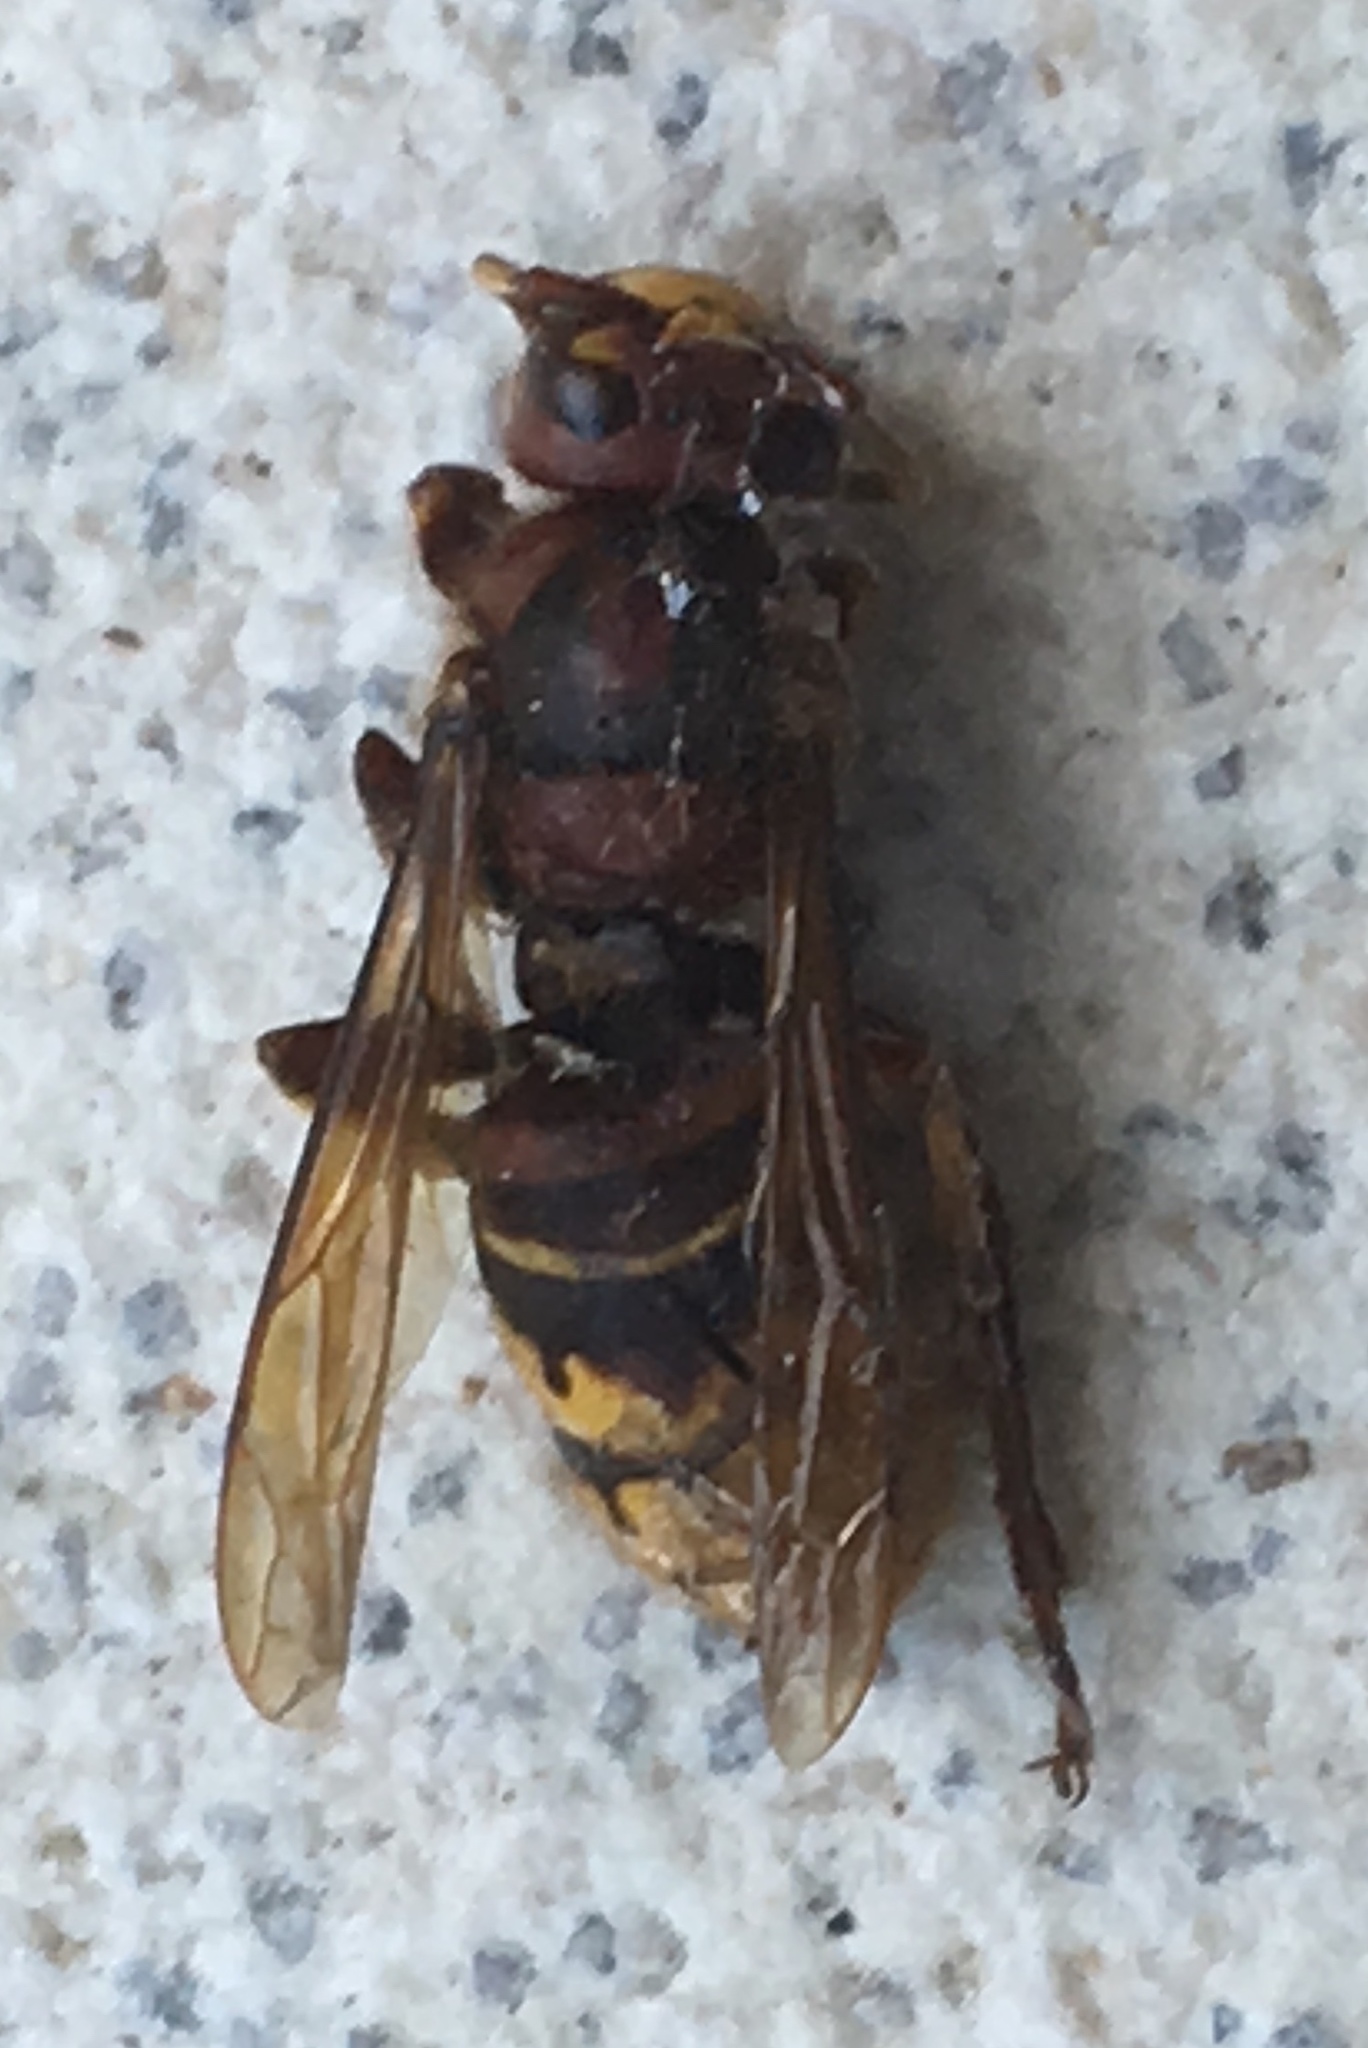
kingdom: Animalia
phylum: Arthropoda
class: Insecta
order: Hymenoptera
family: Vespidae
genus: Vespa
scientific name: Vespa crabro
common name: Hornet
